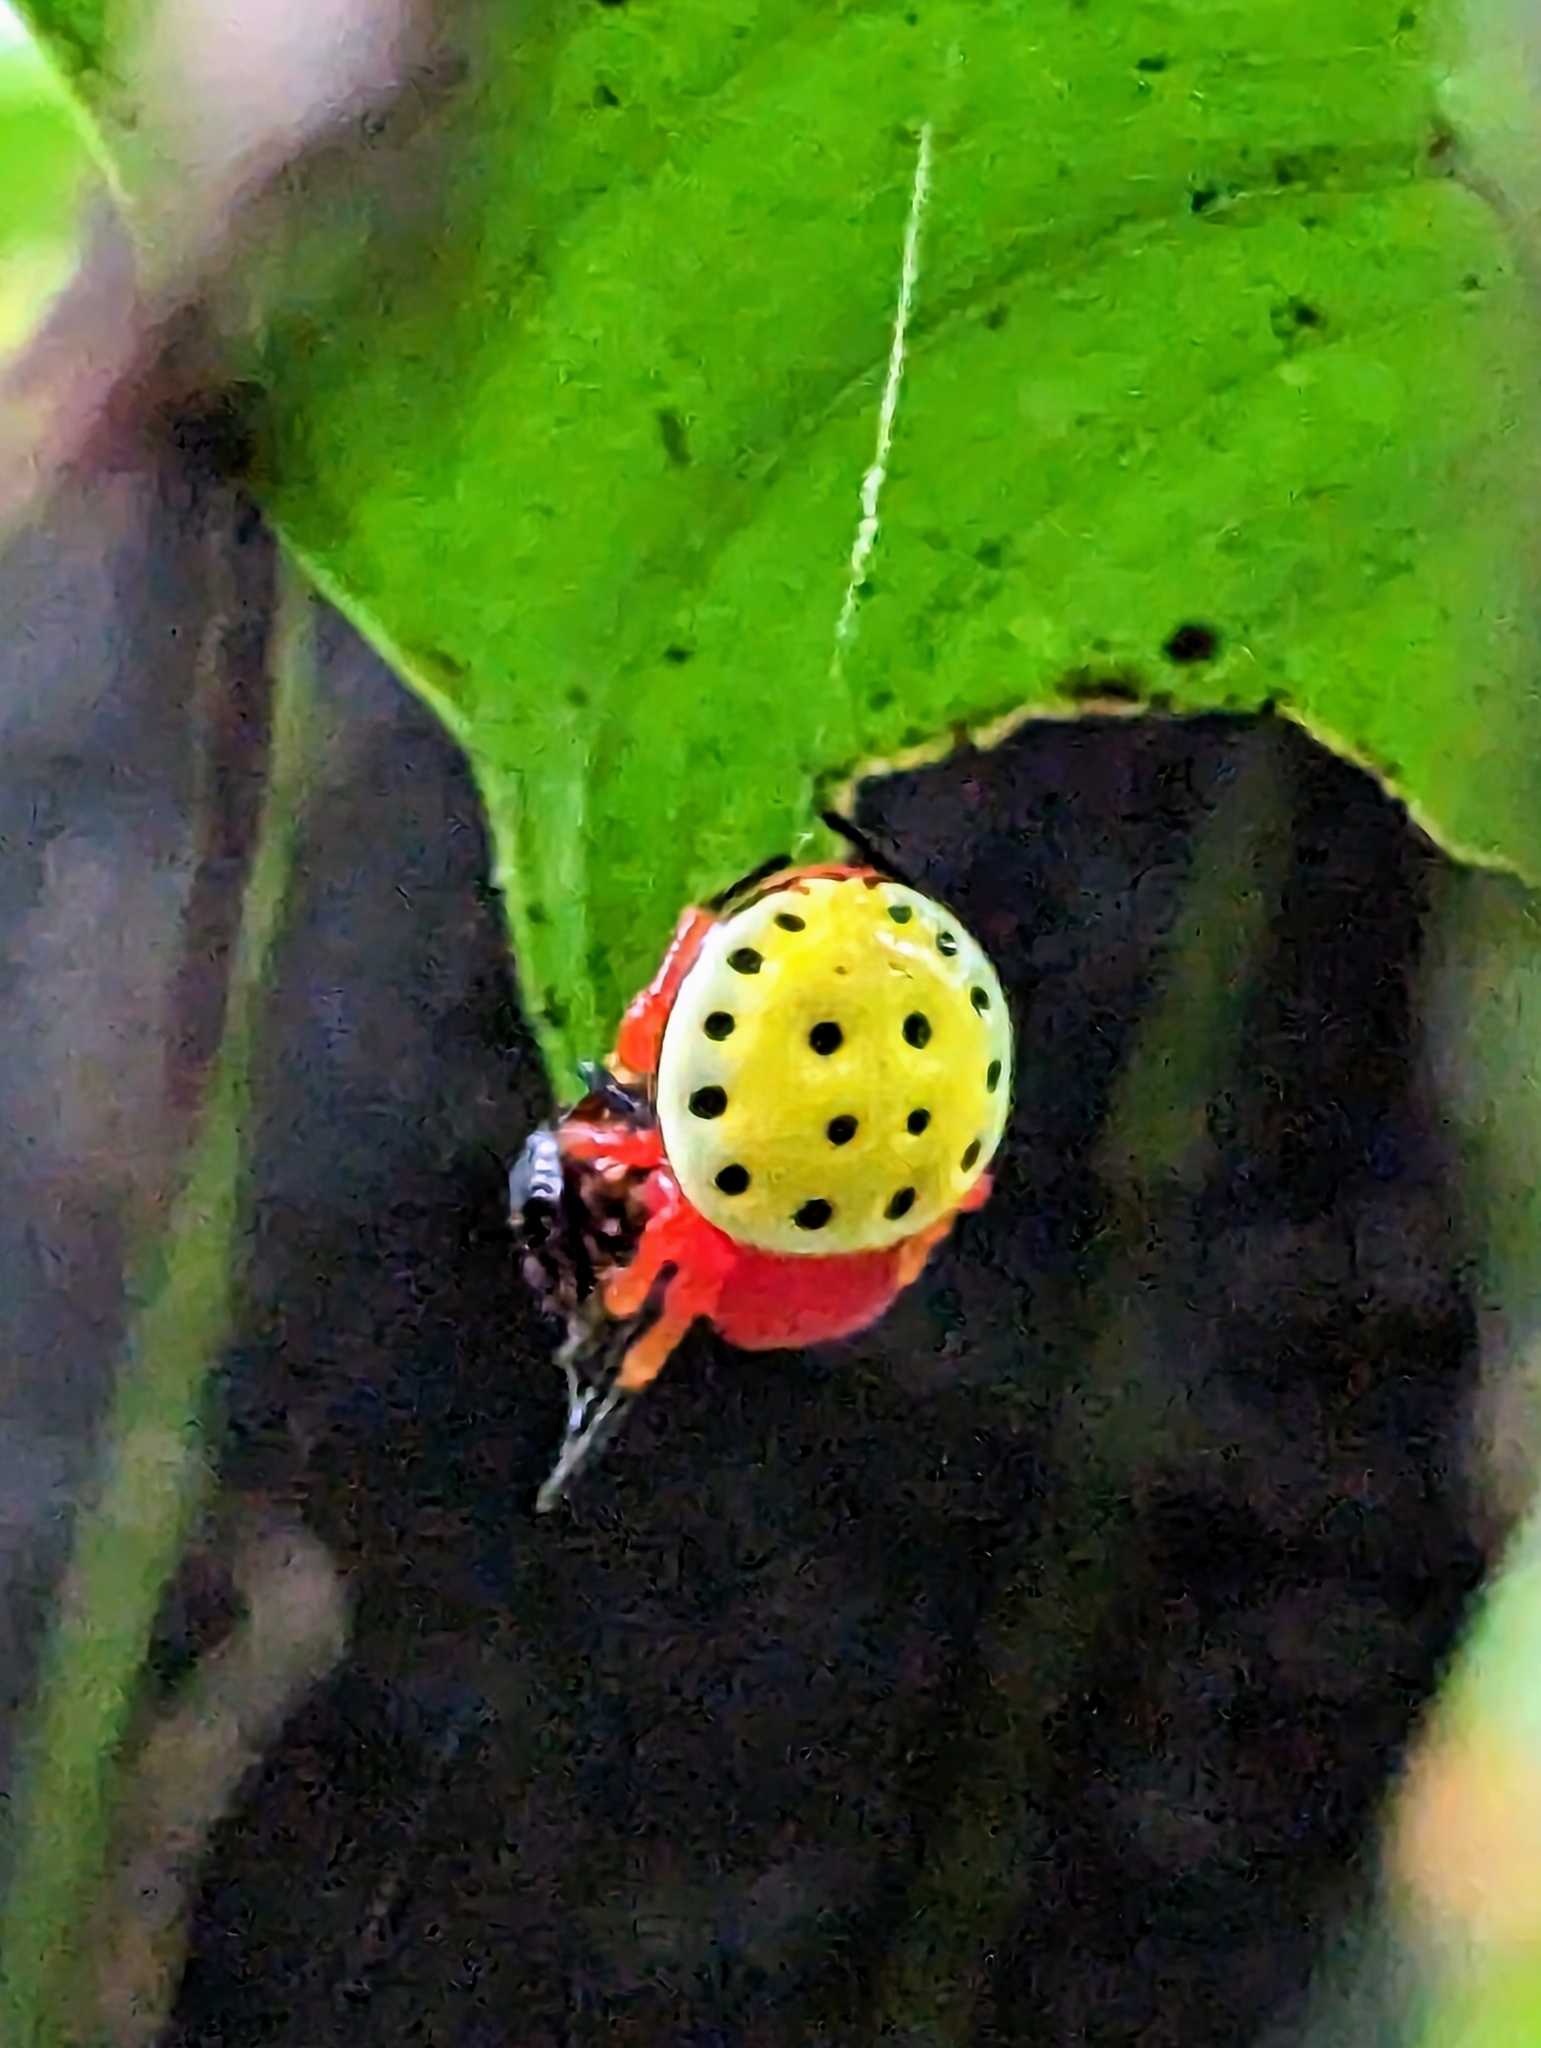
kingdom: Animalia
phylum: Arthropoda
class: Arachnida
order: Araneae
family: Araneidae
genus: Encyosaccus
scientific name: Encyosaccus sexmaculatus
